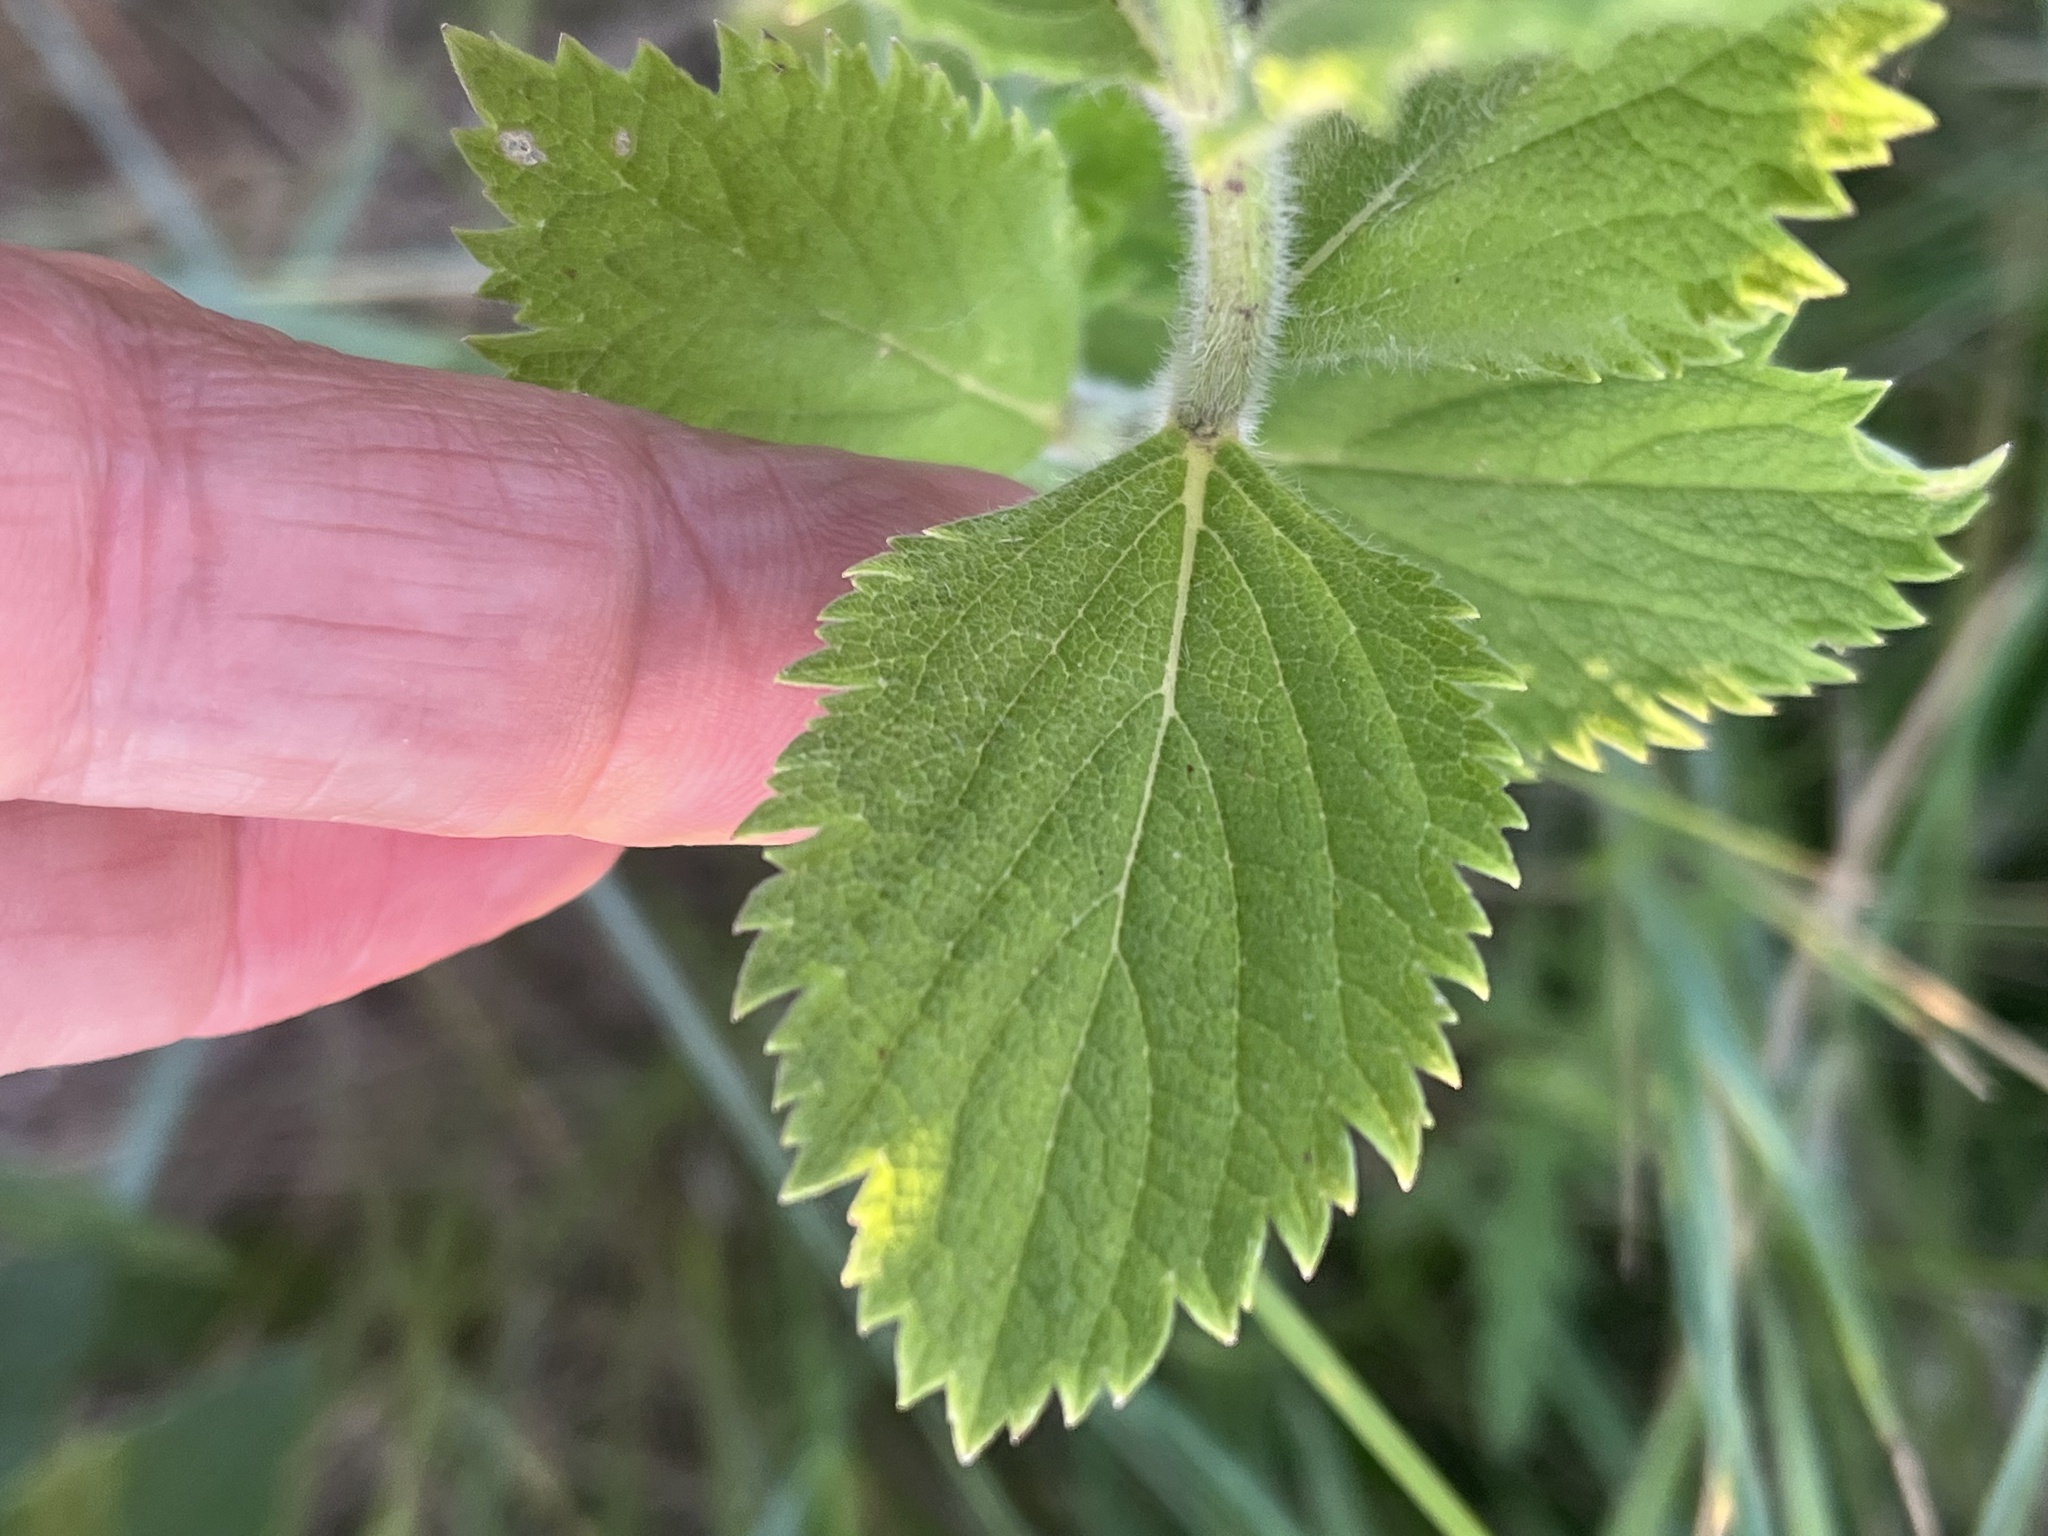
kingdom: Plantae
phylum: Tracheophyta
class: Magnoliopsida
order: Lamiales
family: Verbenaceae
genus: Verbena
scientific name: Verbena stricta
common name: Hoary vervain
